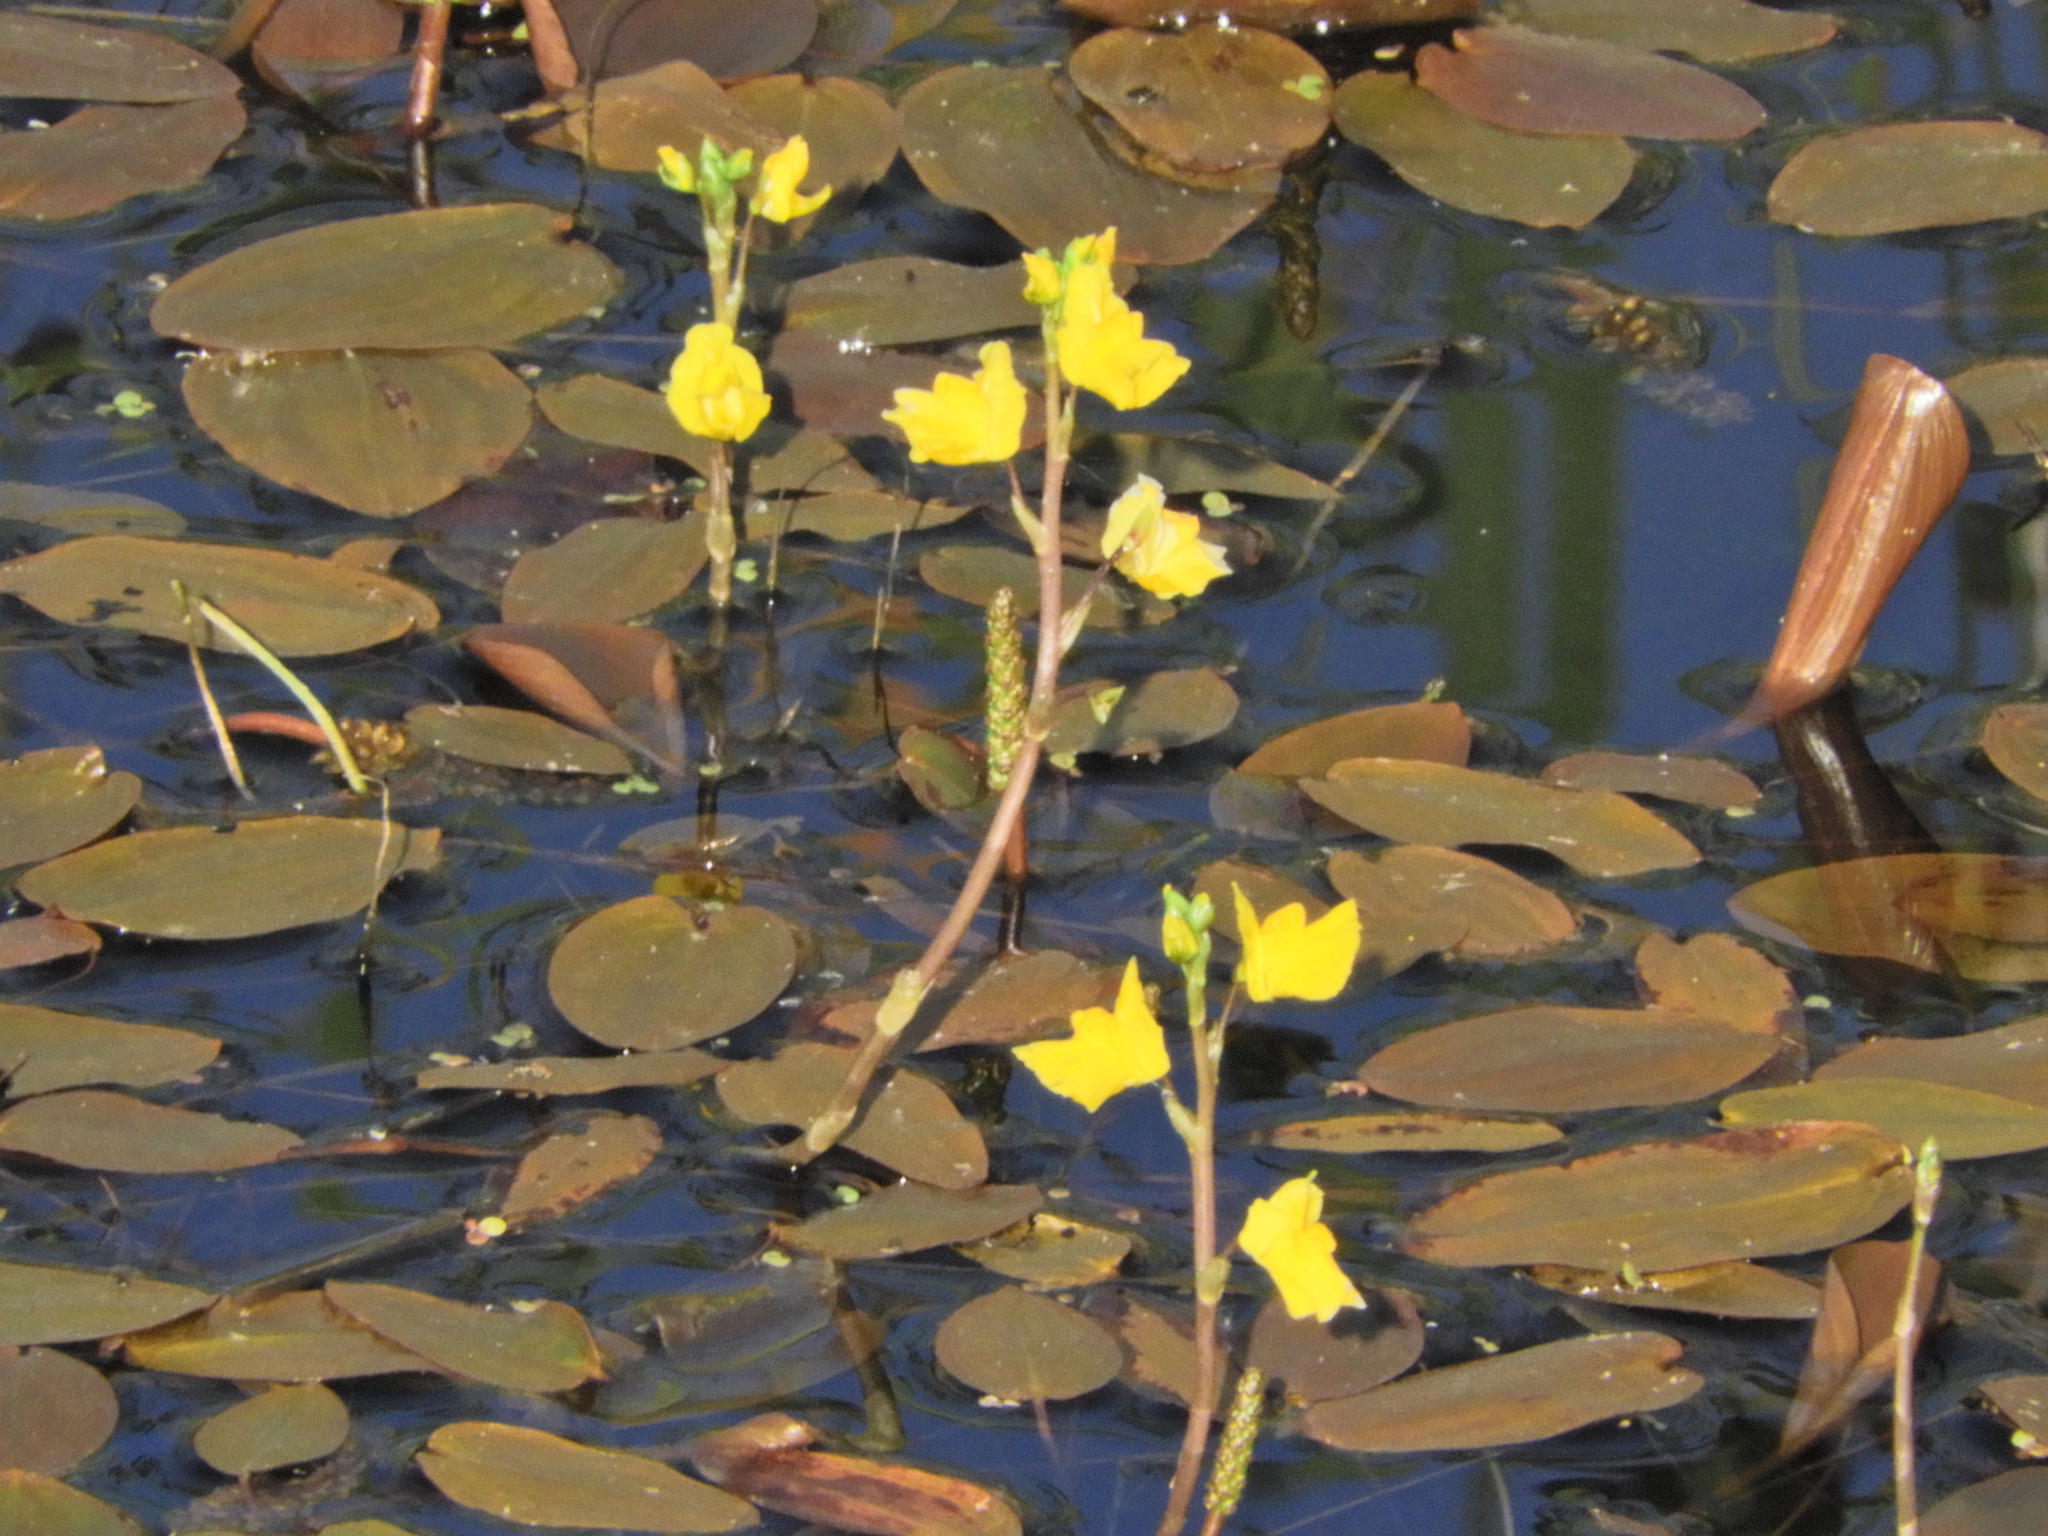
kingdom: Plantae
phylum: Tracheophyta
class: Magnoliopsida
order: Lamiales
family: Lentibulariaceae
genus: Utricularia
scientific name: Utricularia macrorhiza
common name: Common bladderwort
